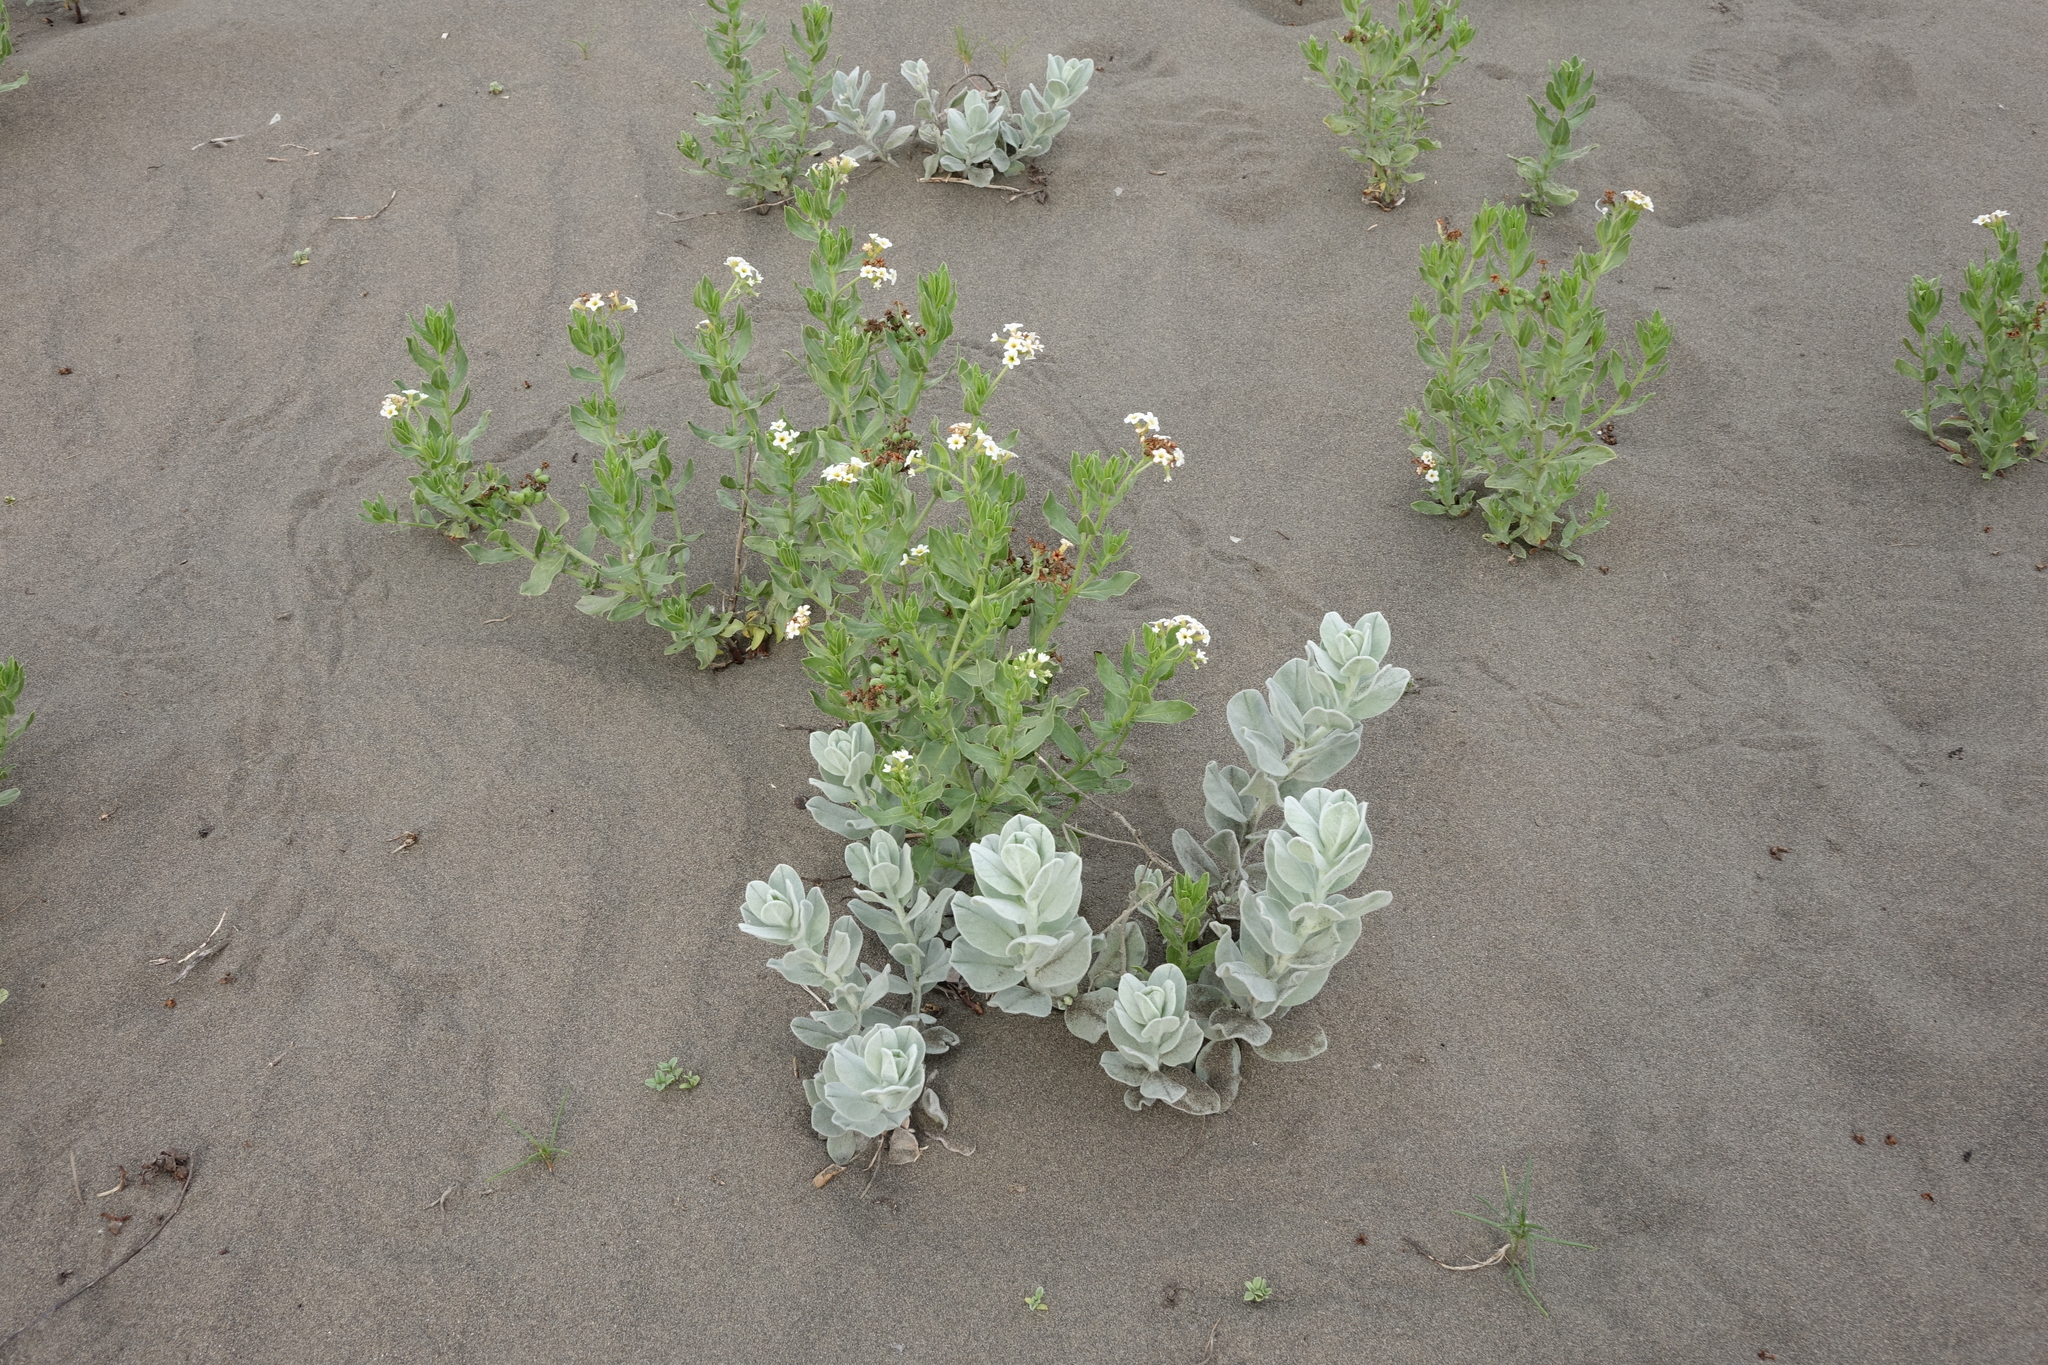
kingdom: Plantae
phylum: Tracheophyta
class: Magnoliopsida
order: Boraginales
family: Heliotropiaceae
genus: Tournefortia
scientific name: Tournefortia sibirica
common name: Siberian sea rosemary
